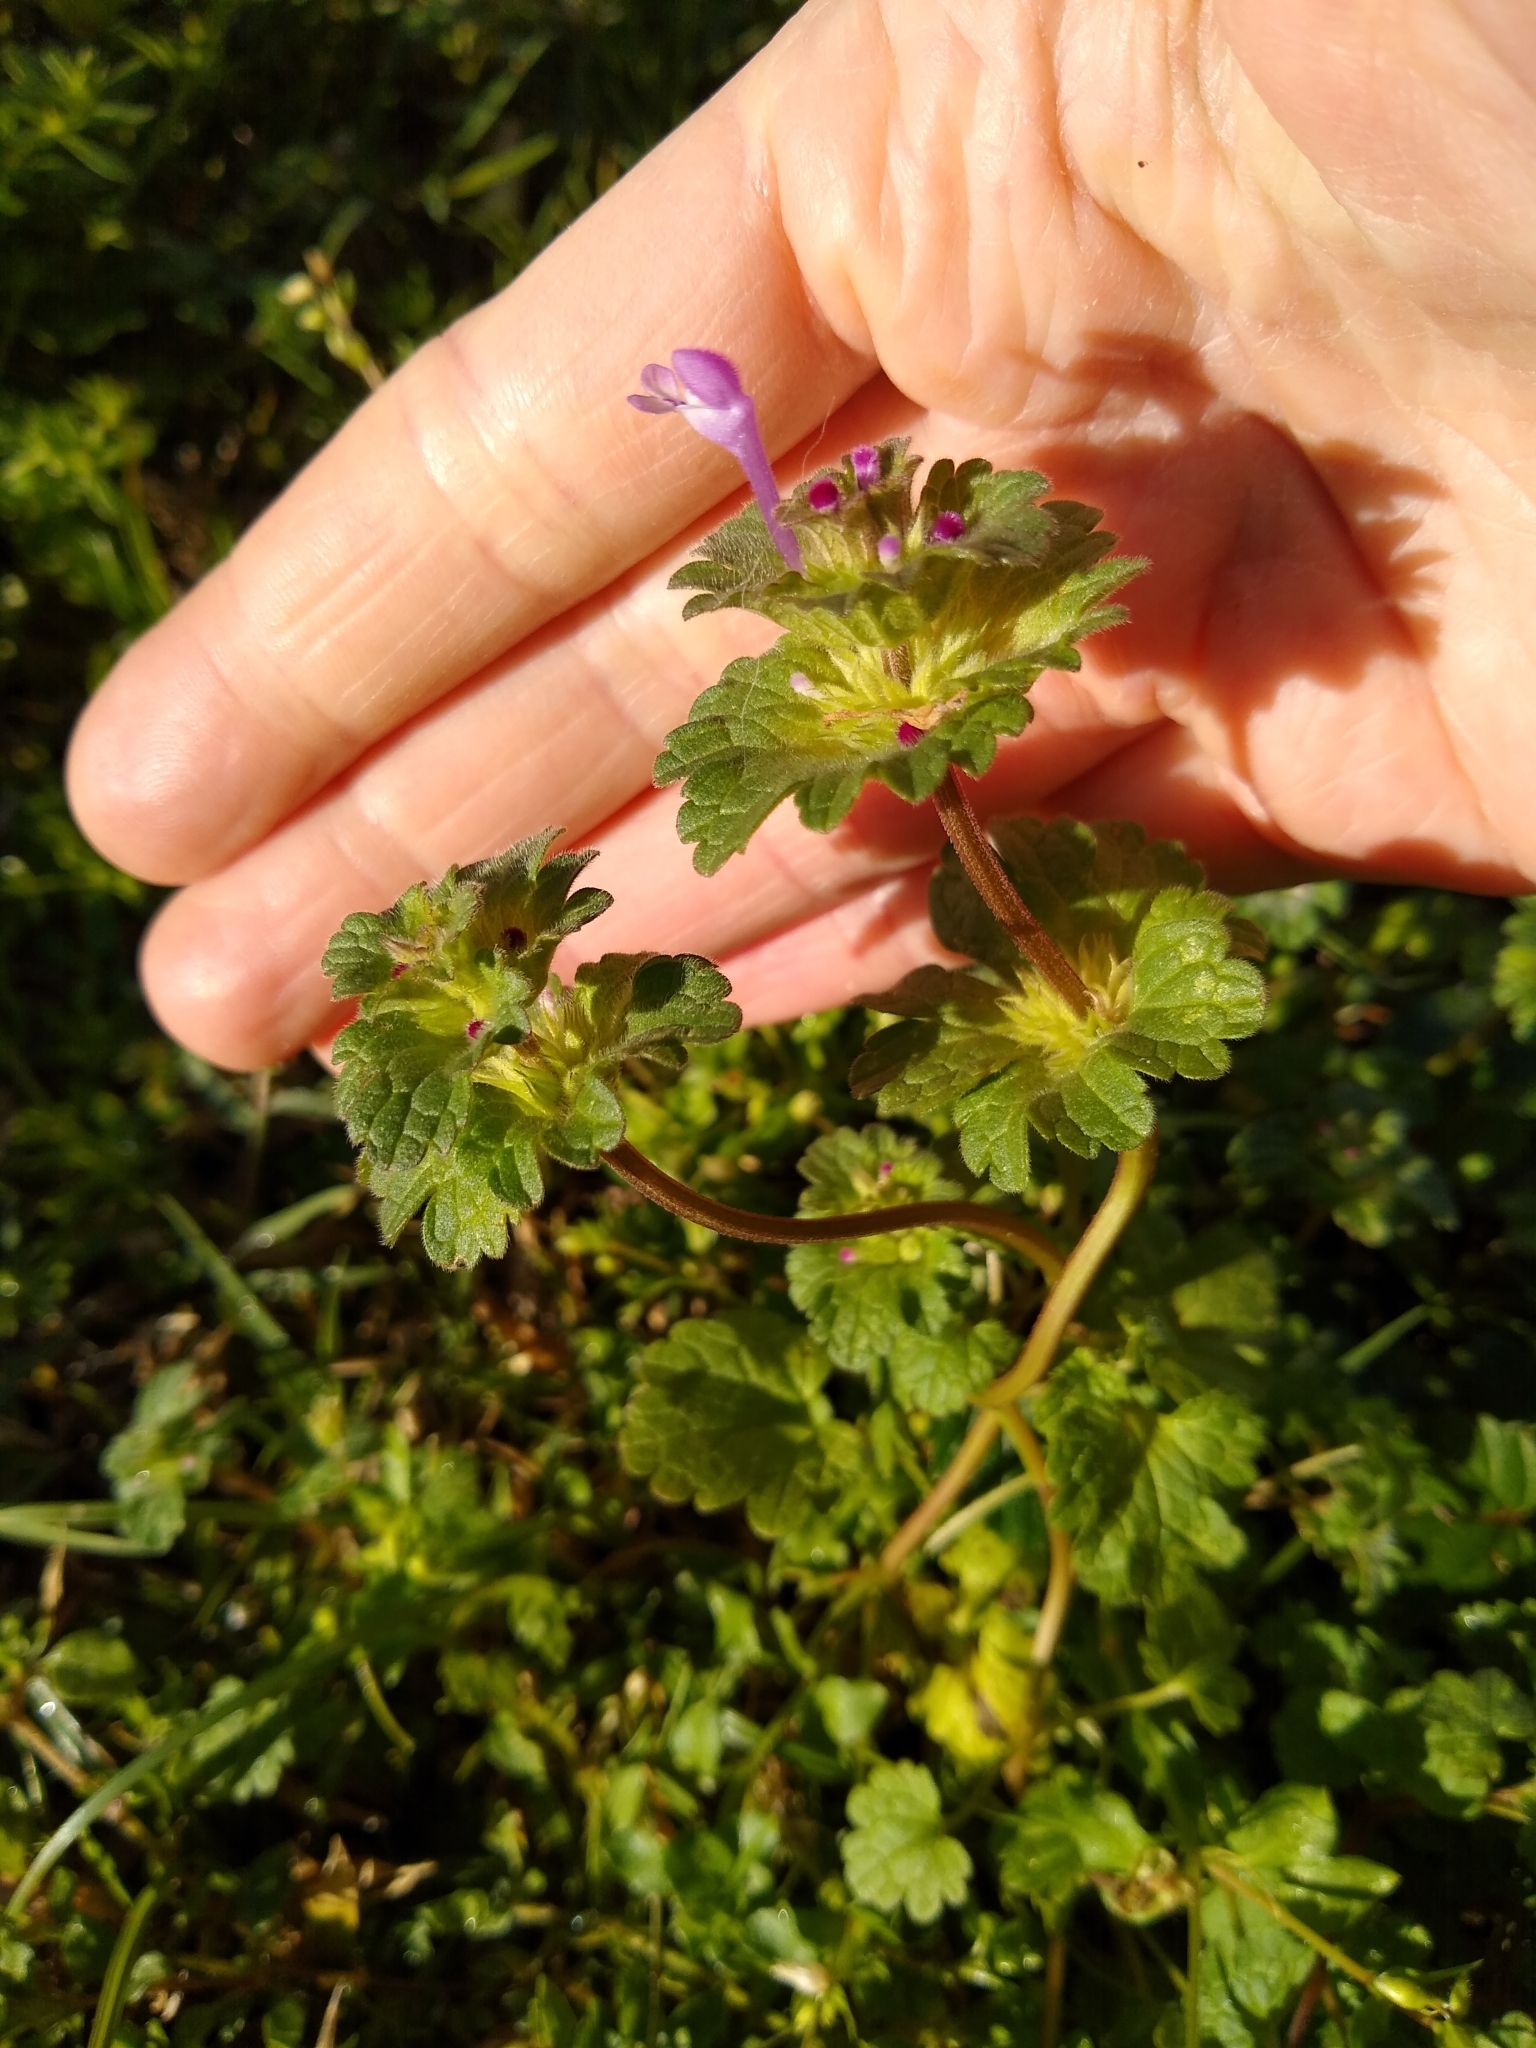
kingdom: Plantae
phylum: Tracheophyta
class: Magnoliopsida
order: Lamiales
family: Lamiaceae
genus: Lamium
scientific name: Lamium amplexicaule
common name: Henbit dead-nettle
